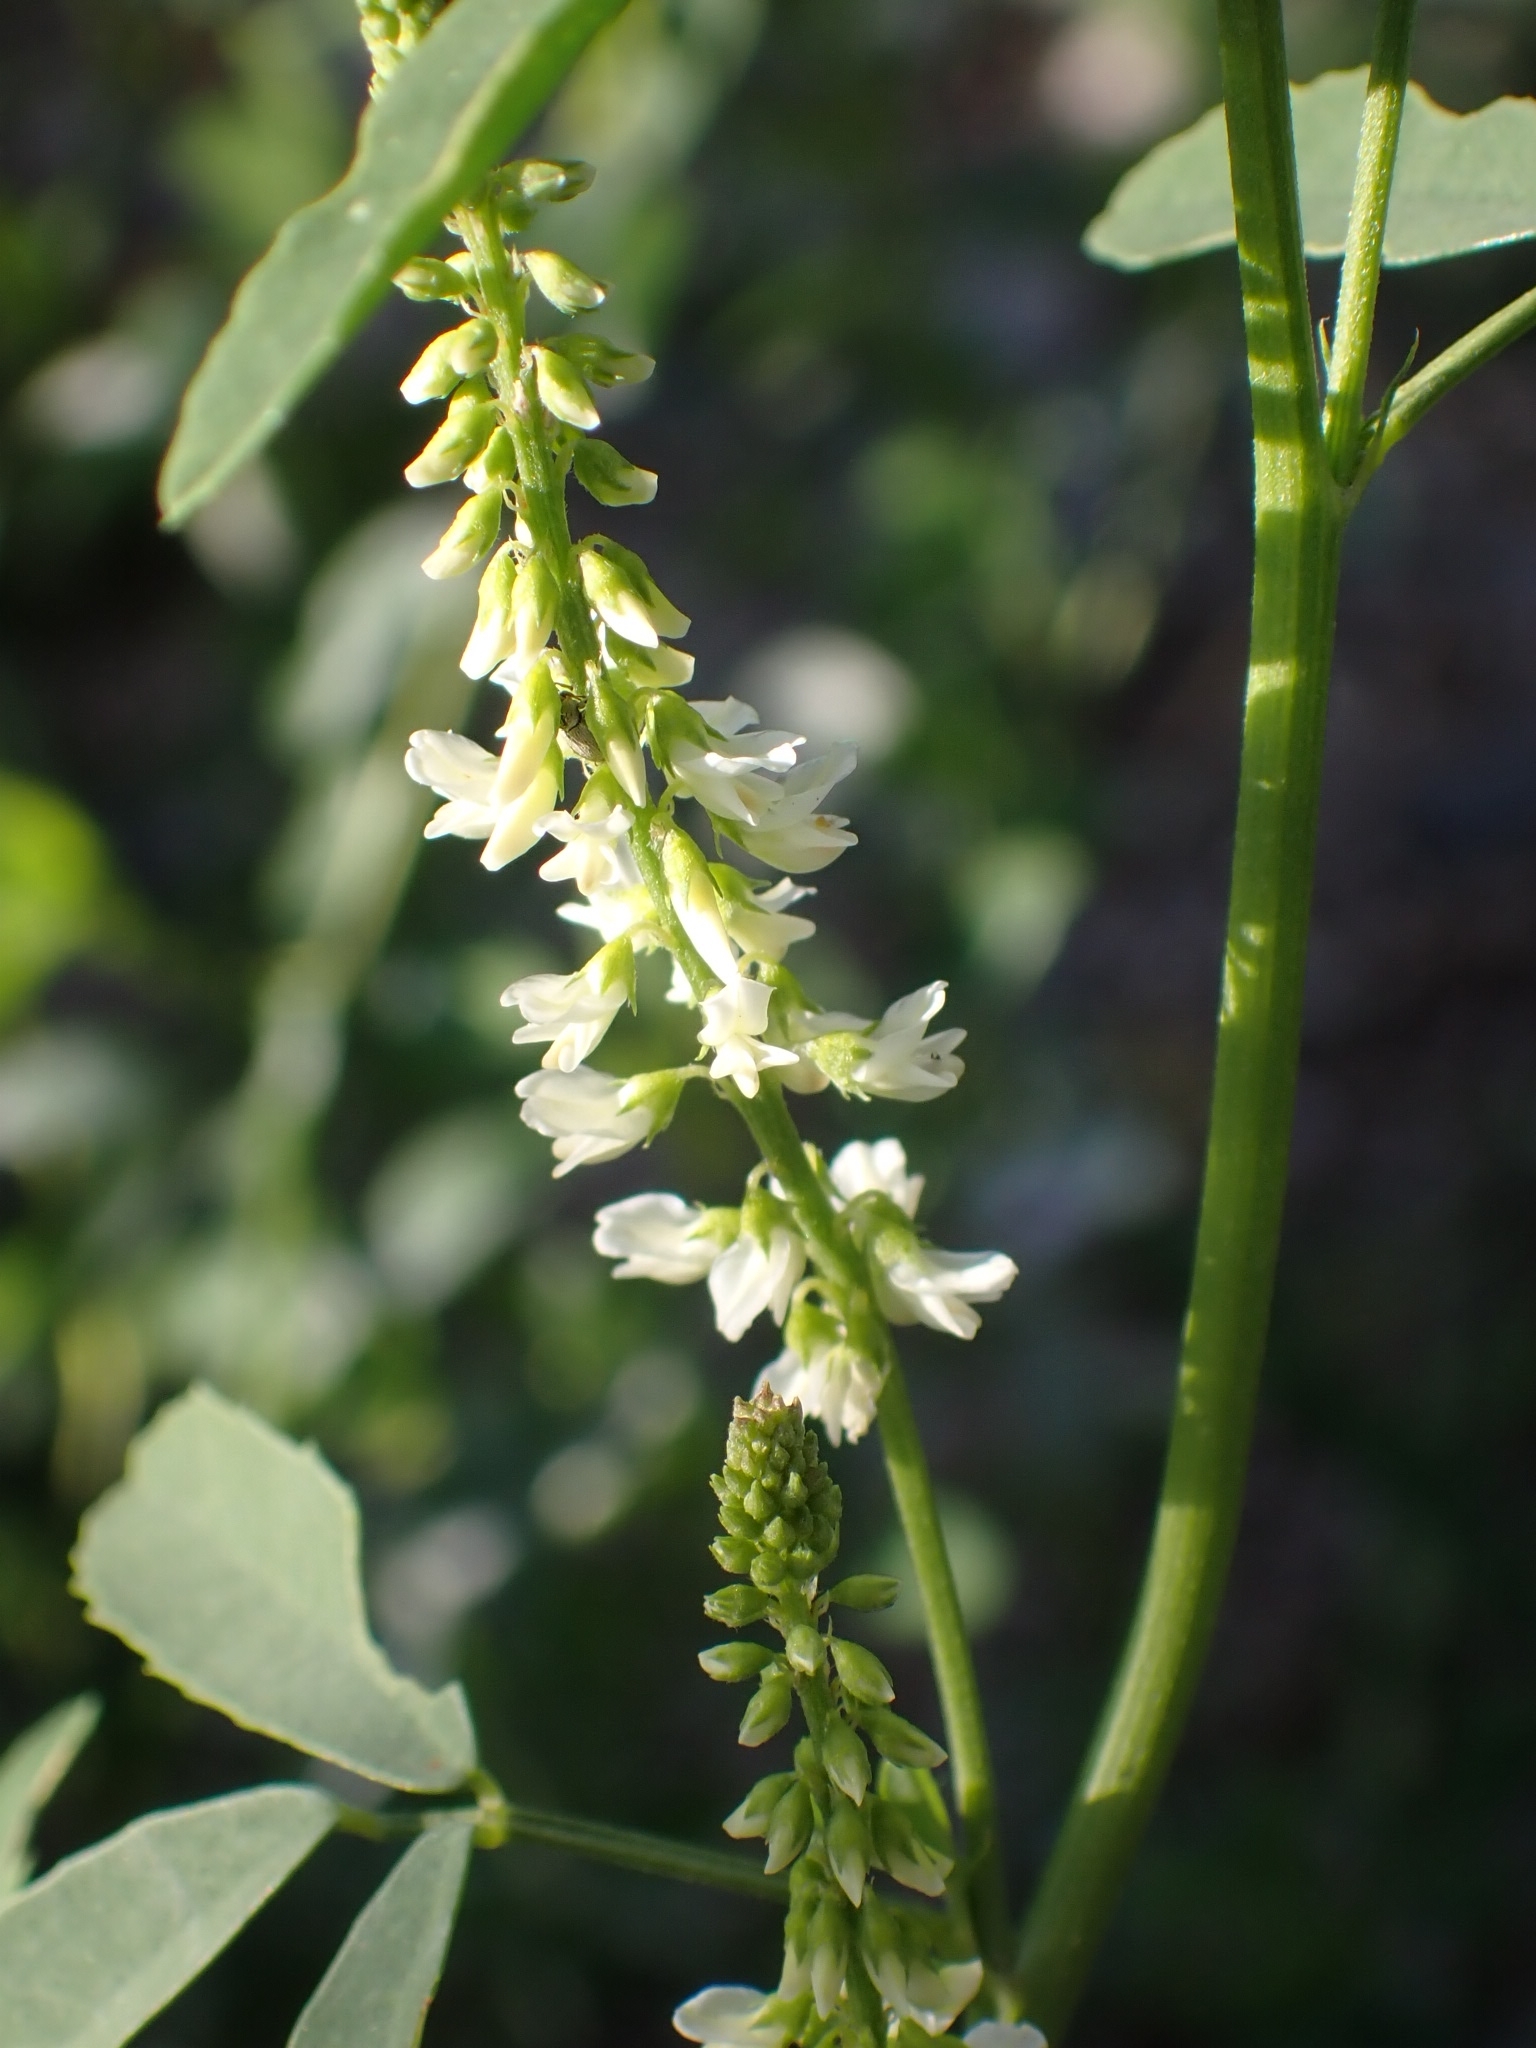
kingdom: Plantae
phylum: Tracheophyta
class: Magnoliopsida
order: Fabales
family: Fabaceae
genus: Melilotus
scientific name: Melilotus albus
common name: White melilot
